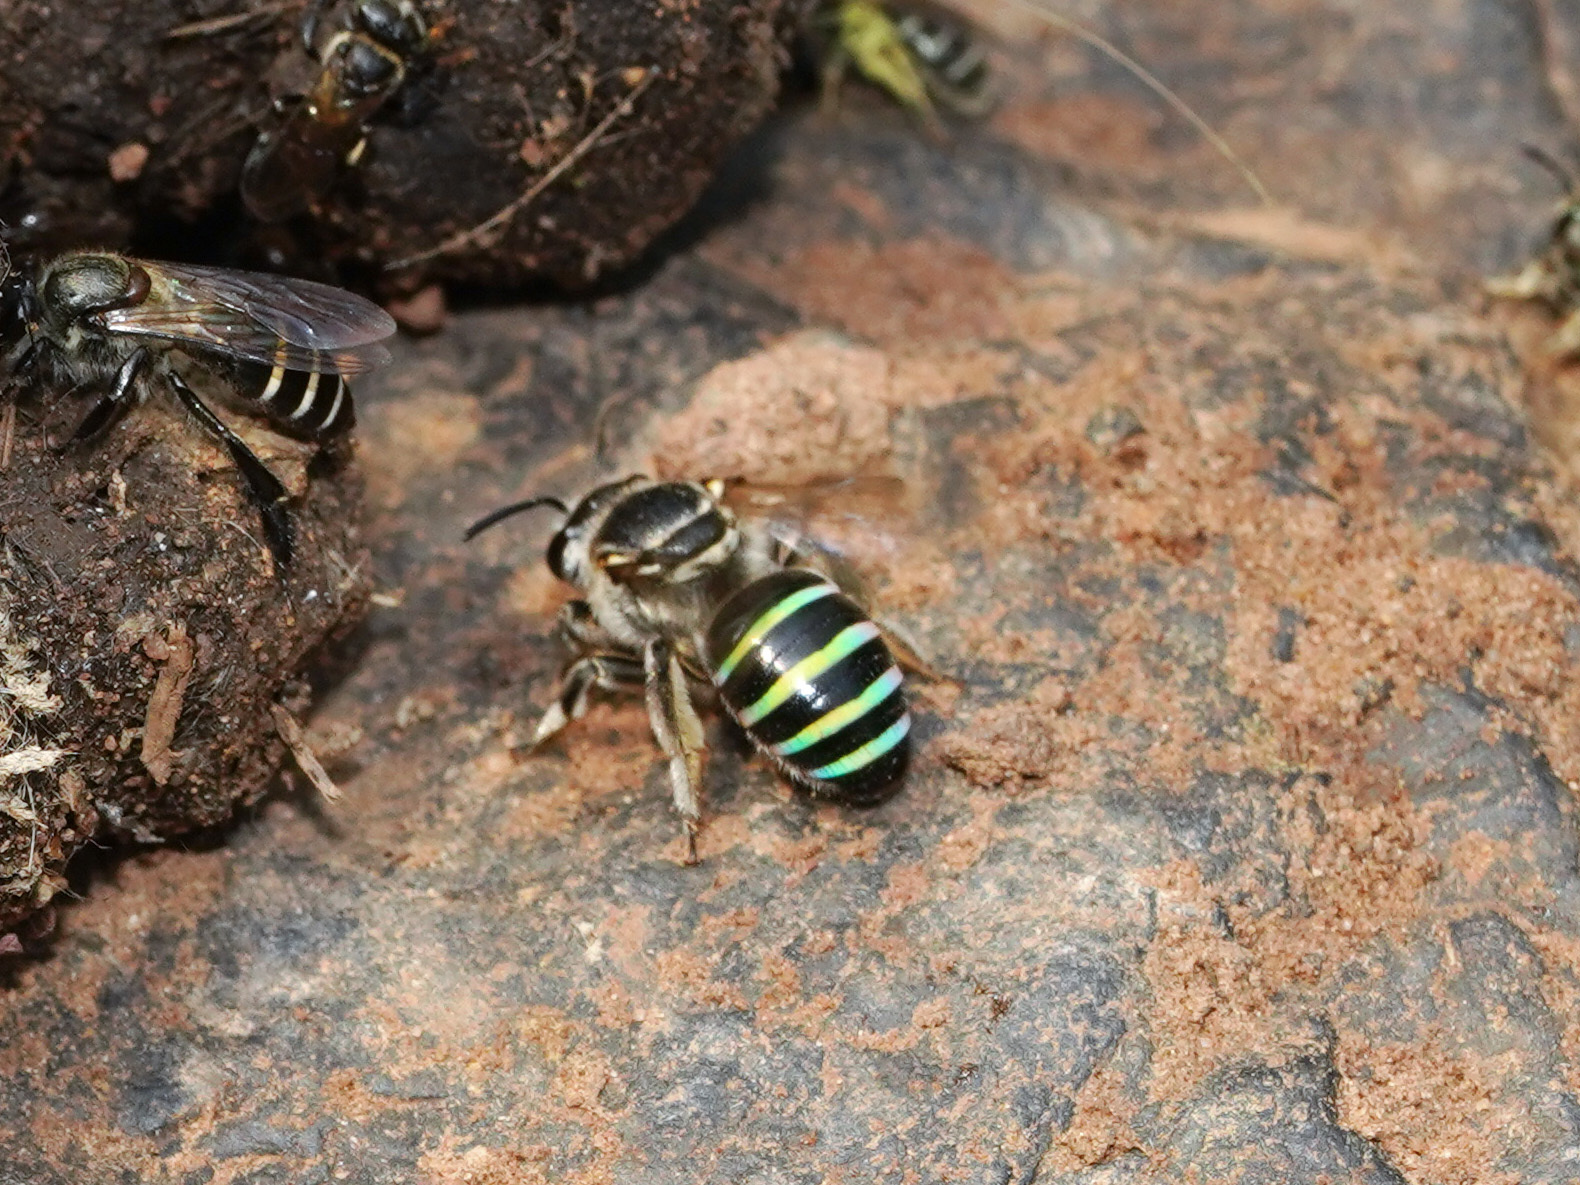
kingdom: Animalia
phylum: Arthropoda
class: Insecta
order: Hymenoptera
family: Halictidae
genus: Nomia
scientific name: Nomia ellioti
